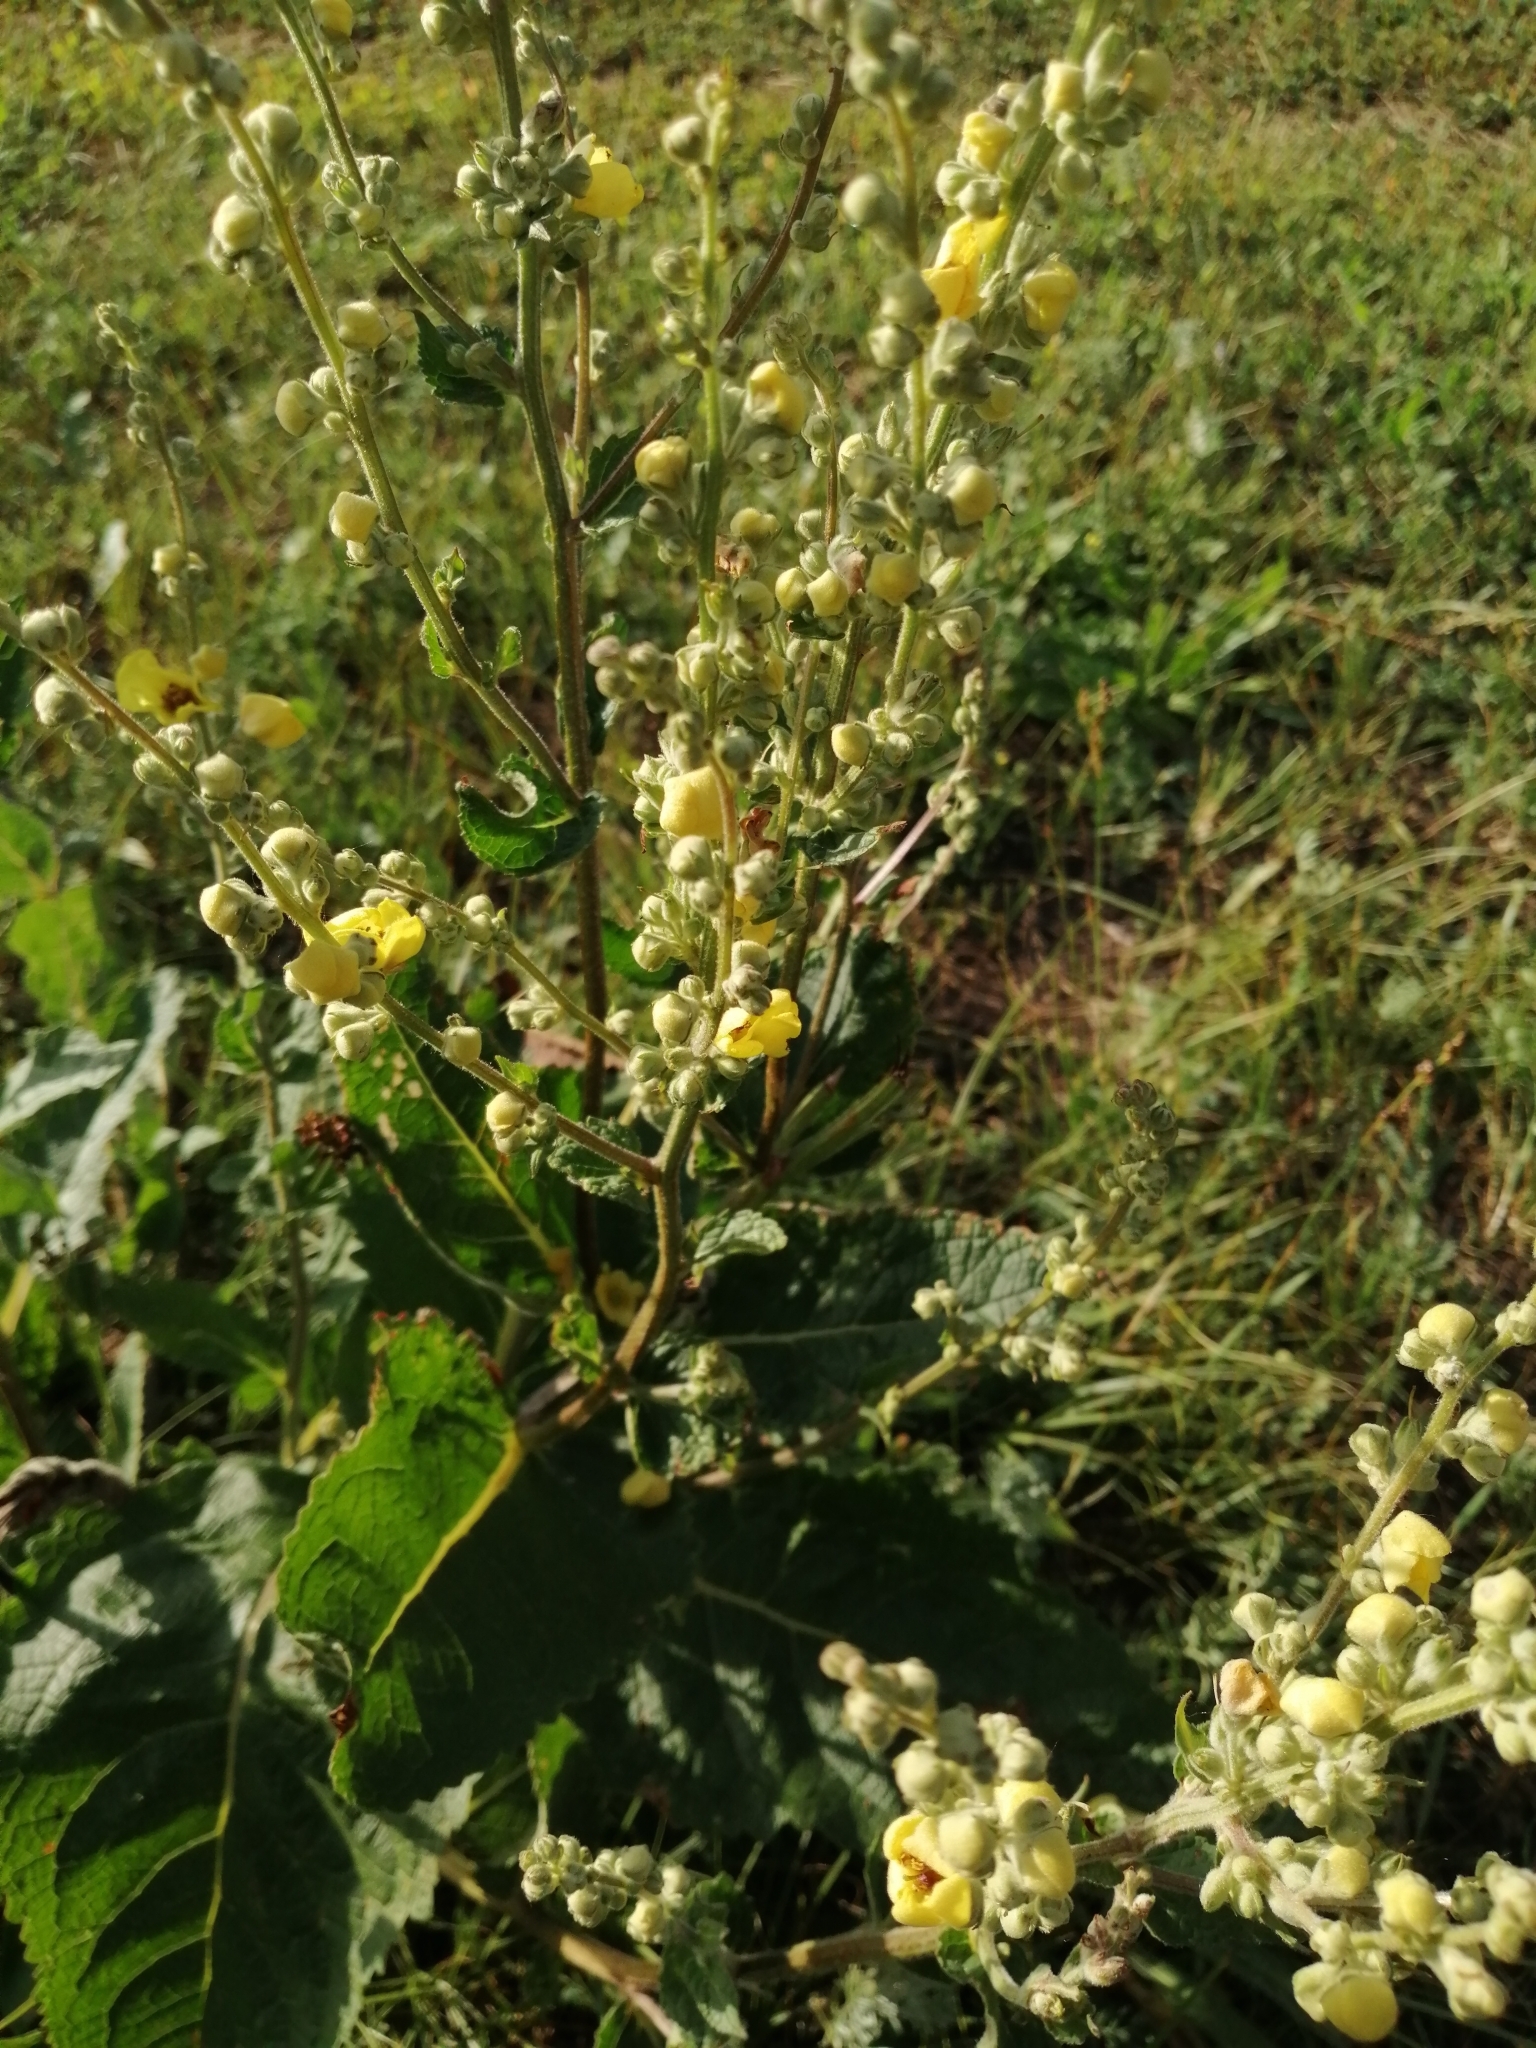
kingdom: Plantae
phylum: Tracheophyta
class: Magnoliopsida
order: Lamiales
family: Scrophulariaceae
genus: Verbascum
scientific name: Verbascum chaixii
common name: Nettle-leaved mullein
